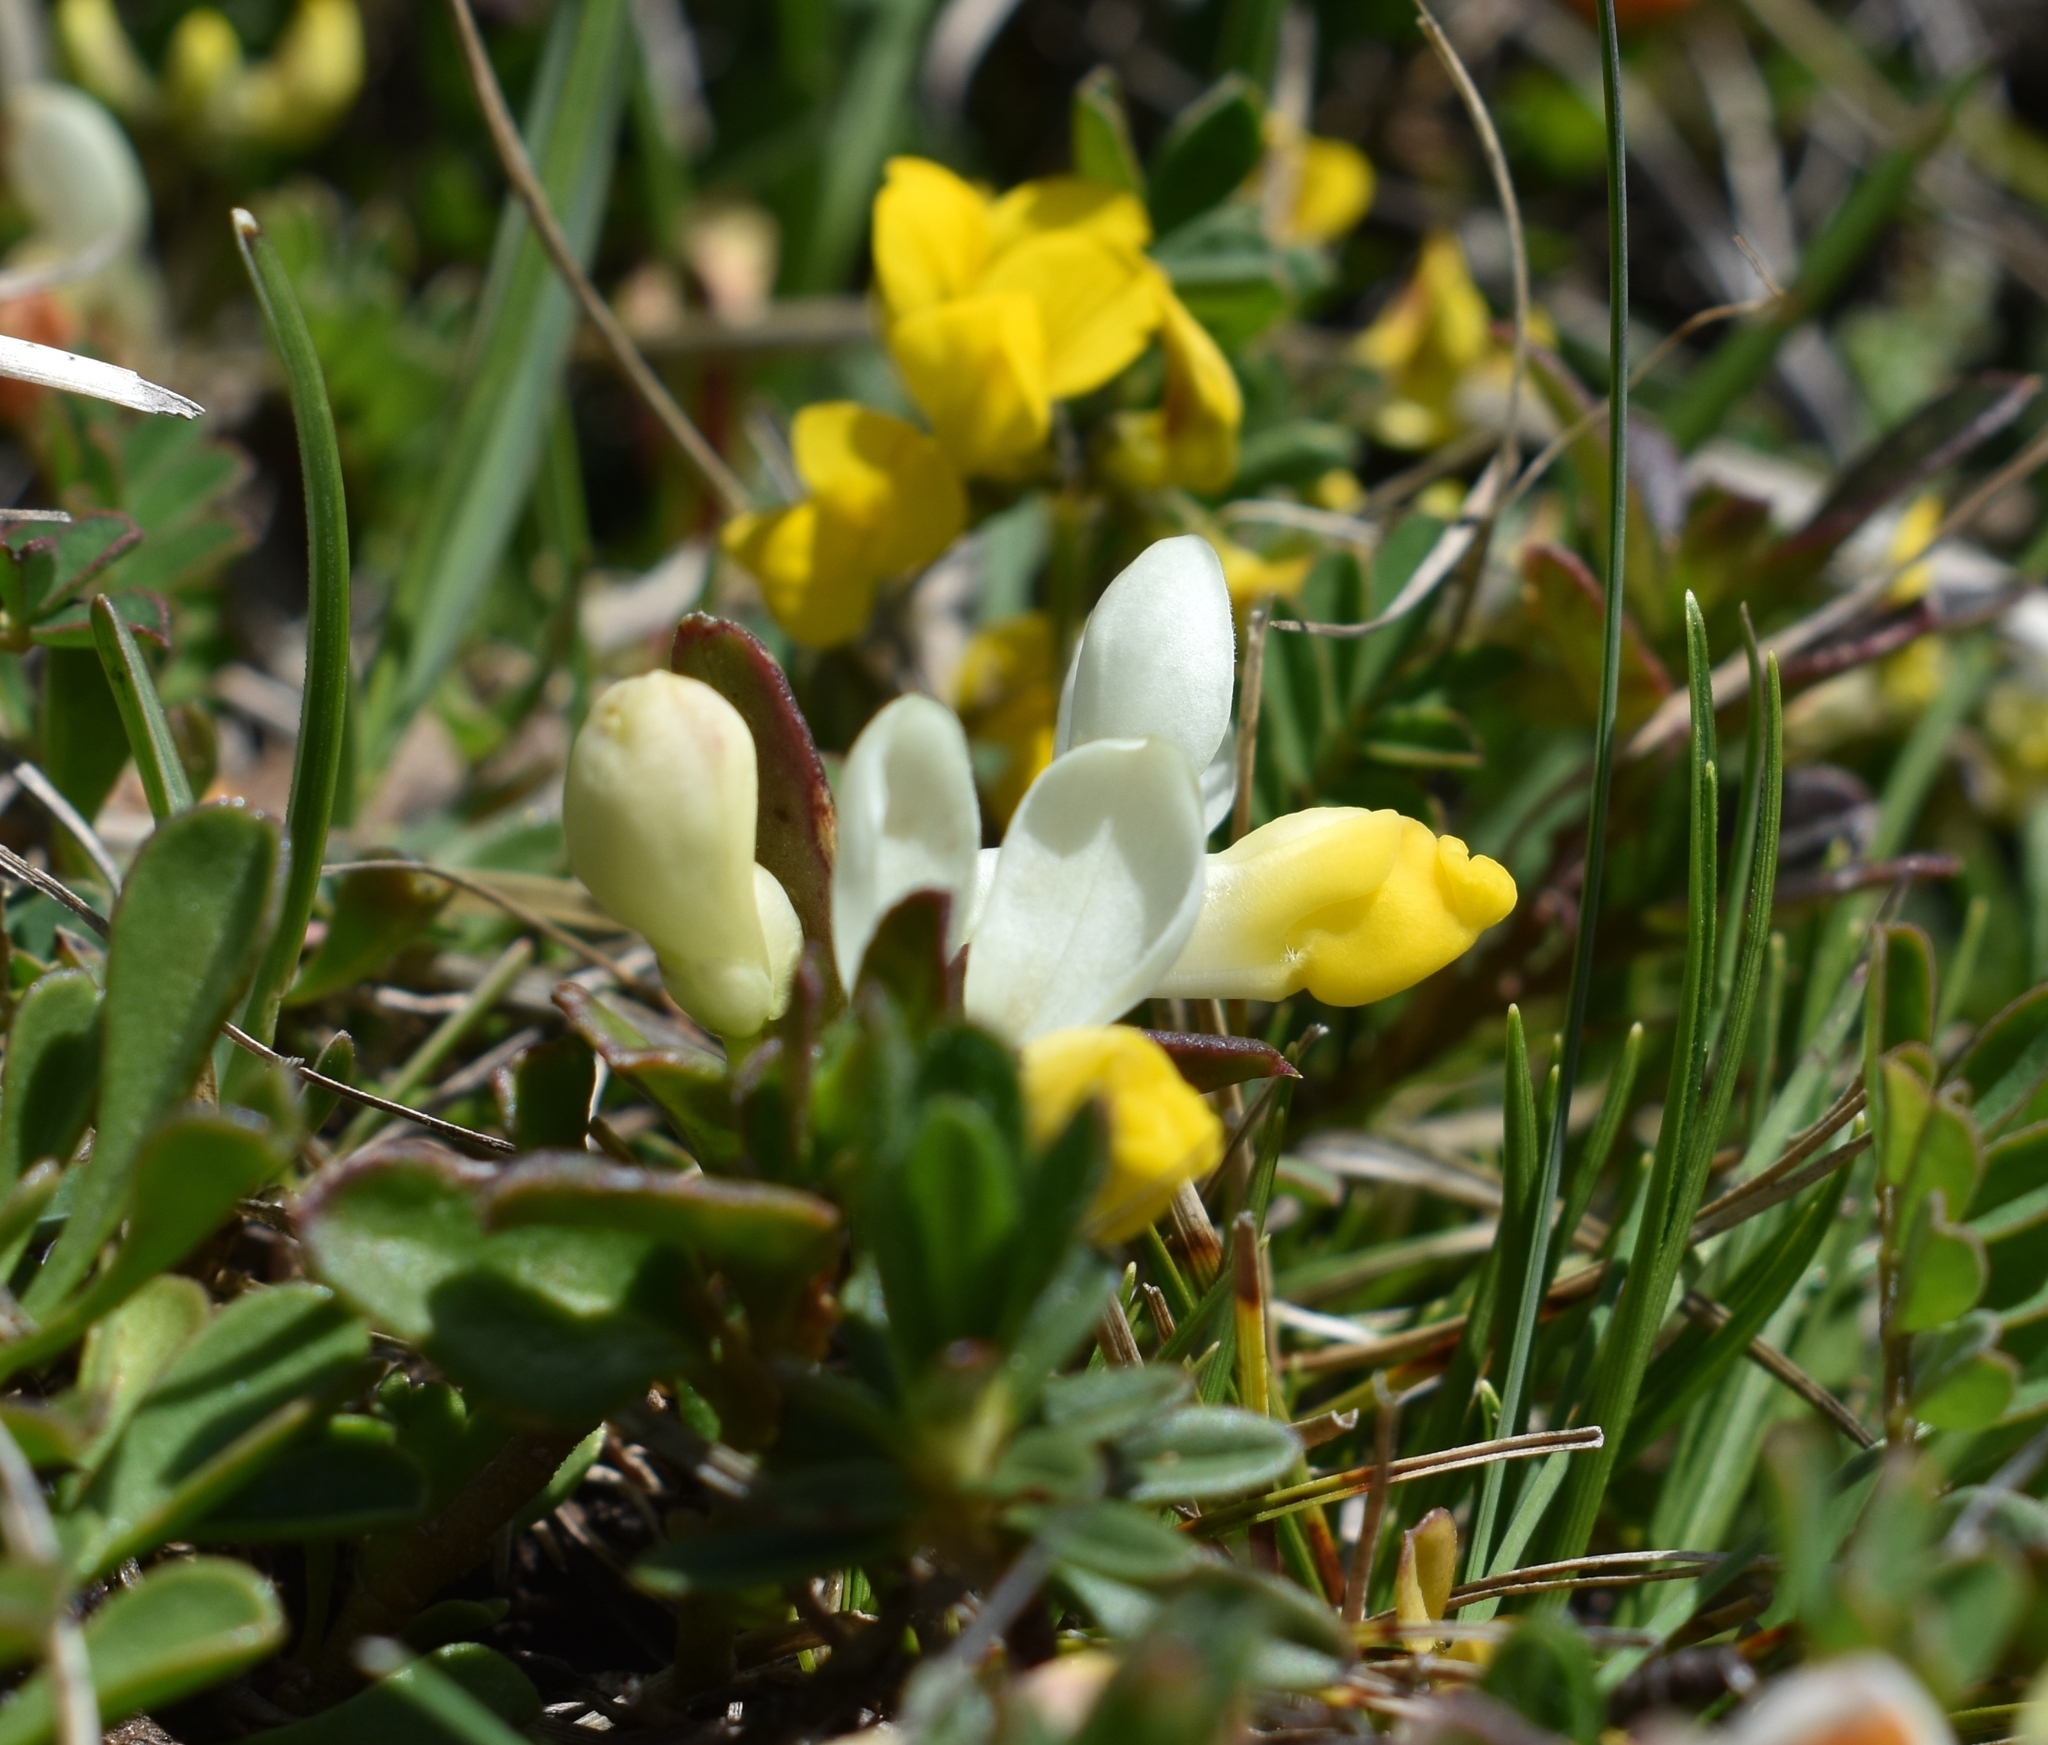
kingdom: Plantae
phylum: Tracheophyta
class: Magnoliopsida
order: Fabales
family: Polygalaceae
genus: Polygaloides
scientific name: Polygaloides chamaebuxus
